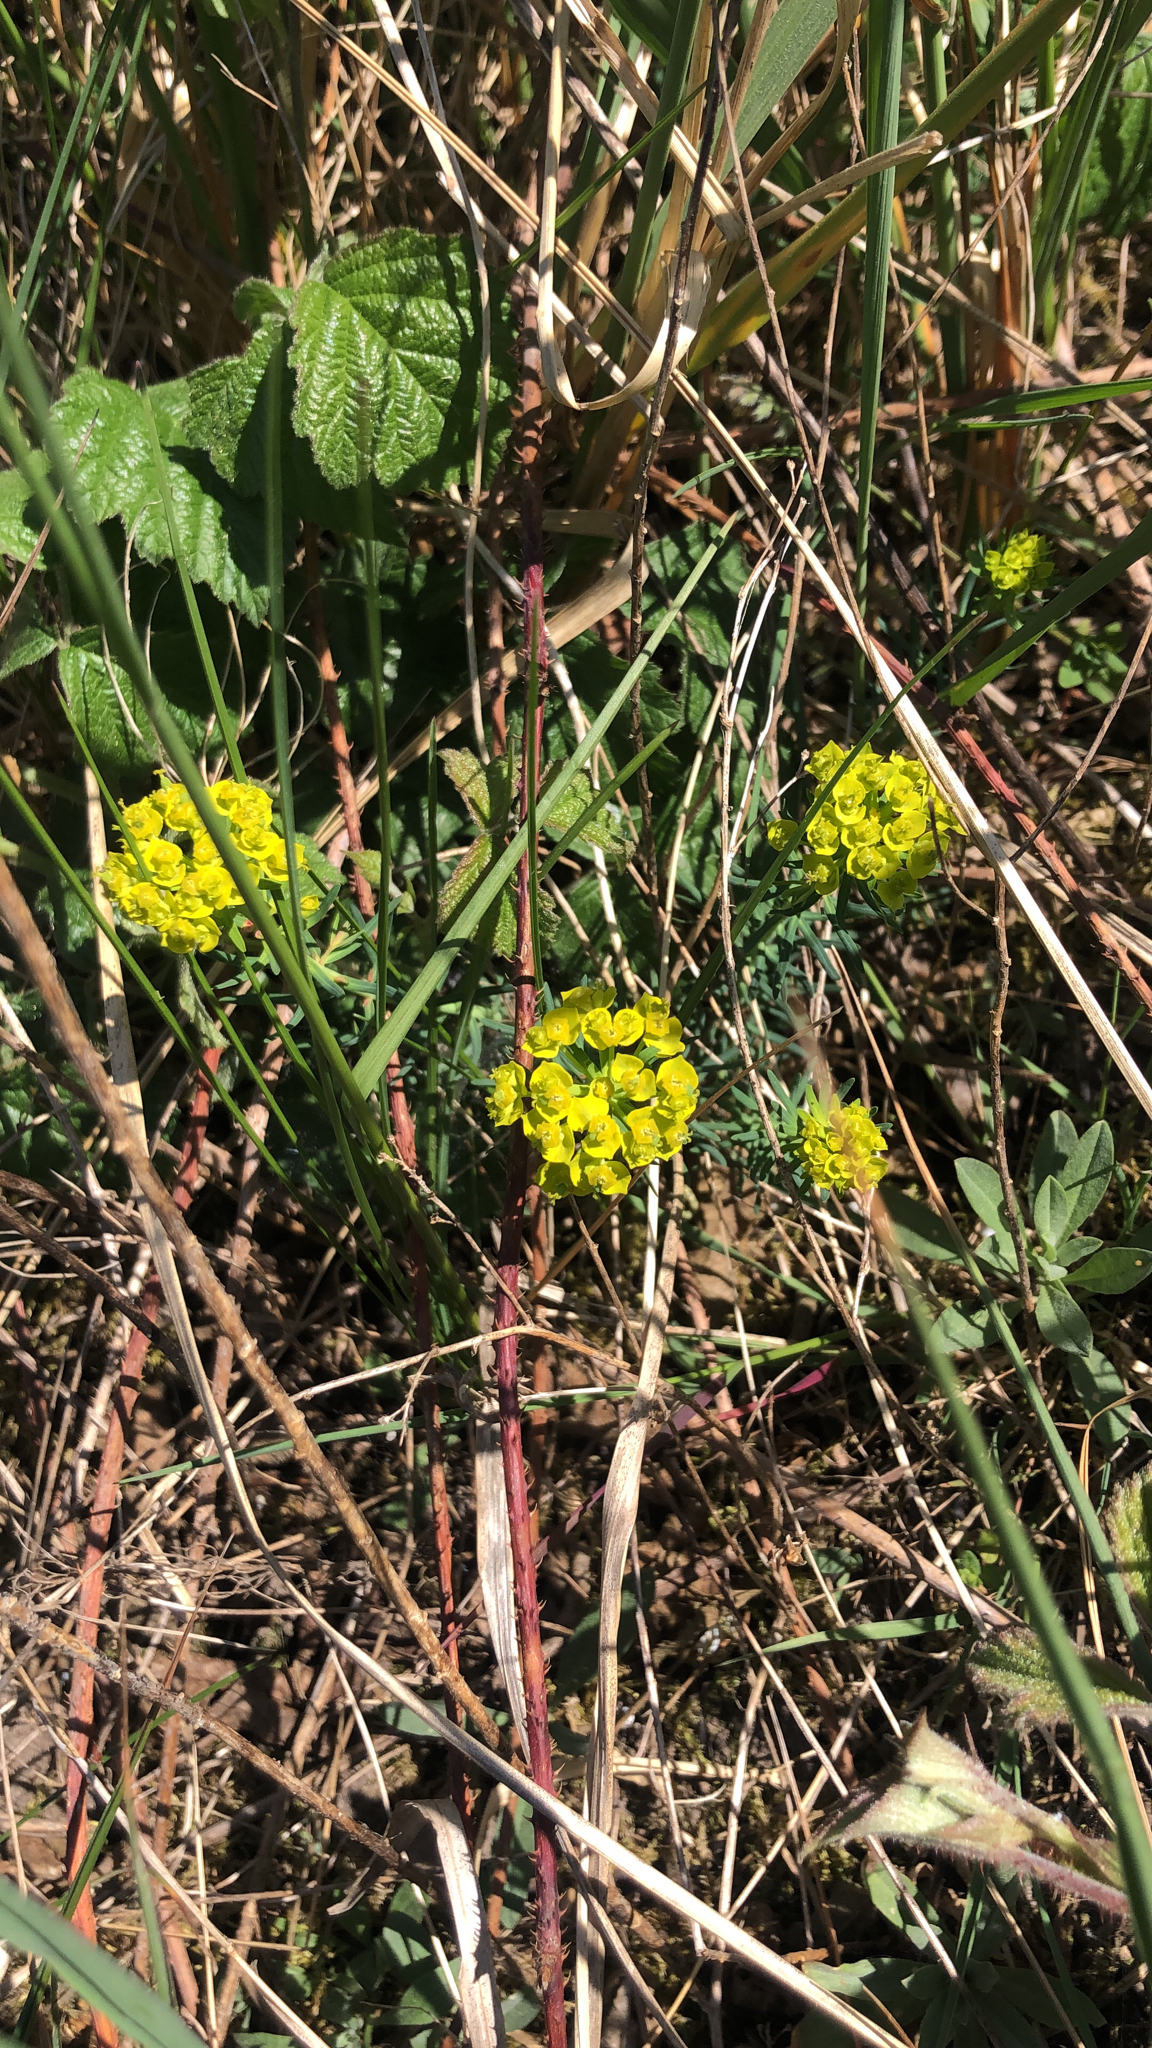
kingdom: Plantae
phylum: Tracheophyta
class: Magnoliopsida
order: Malpighiales
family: Euphorbiaceae
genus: Euphorbia
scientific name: Euphorbia cyparissias
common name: Cypress spurge
